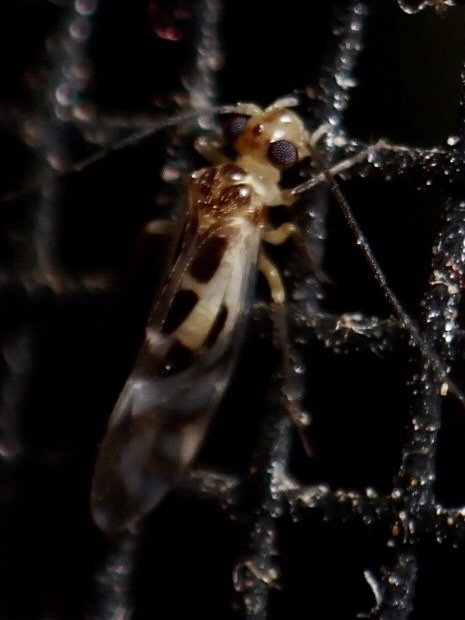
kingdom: Animalia
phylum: Arthropoda
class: Insecta
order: Psocodea
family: Stenopsocidae
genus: Graphopsocus
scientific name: Graphopsocus cruciatus
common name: Lizard bark louse
